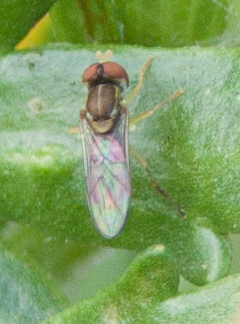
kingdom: Animalia
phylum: Arthropoda
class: Insecta
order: Diptera
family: Syrphidae
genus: Toxomerus
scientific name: Toxomerus marginatus
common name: Syrphid fly
